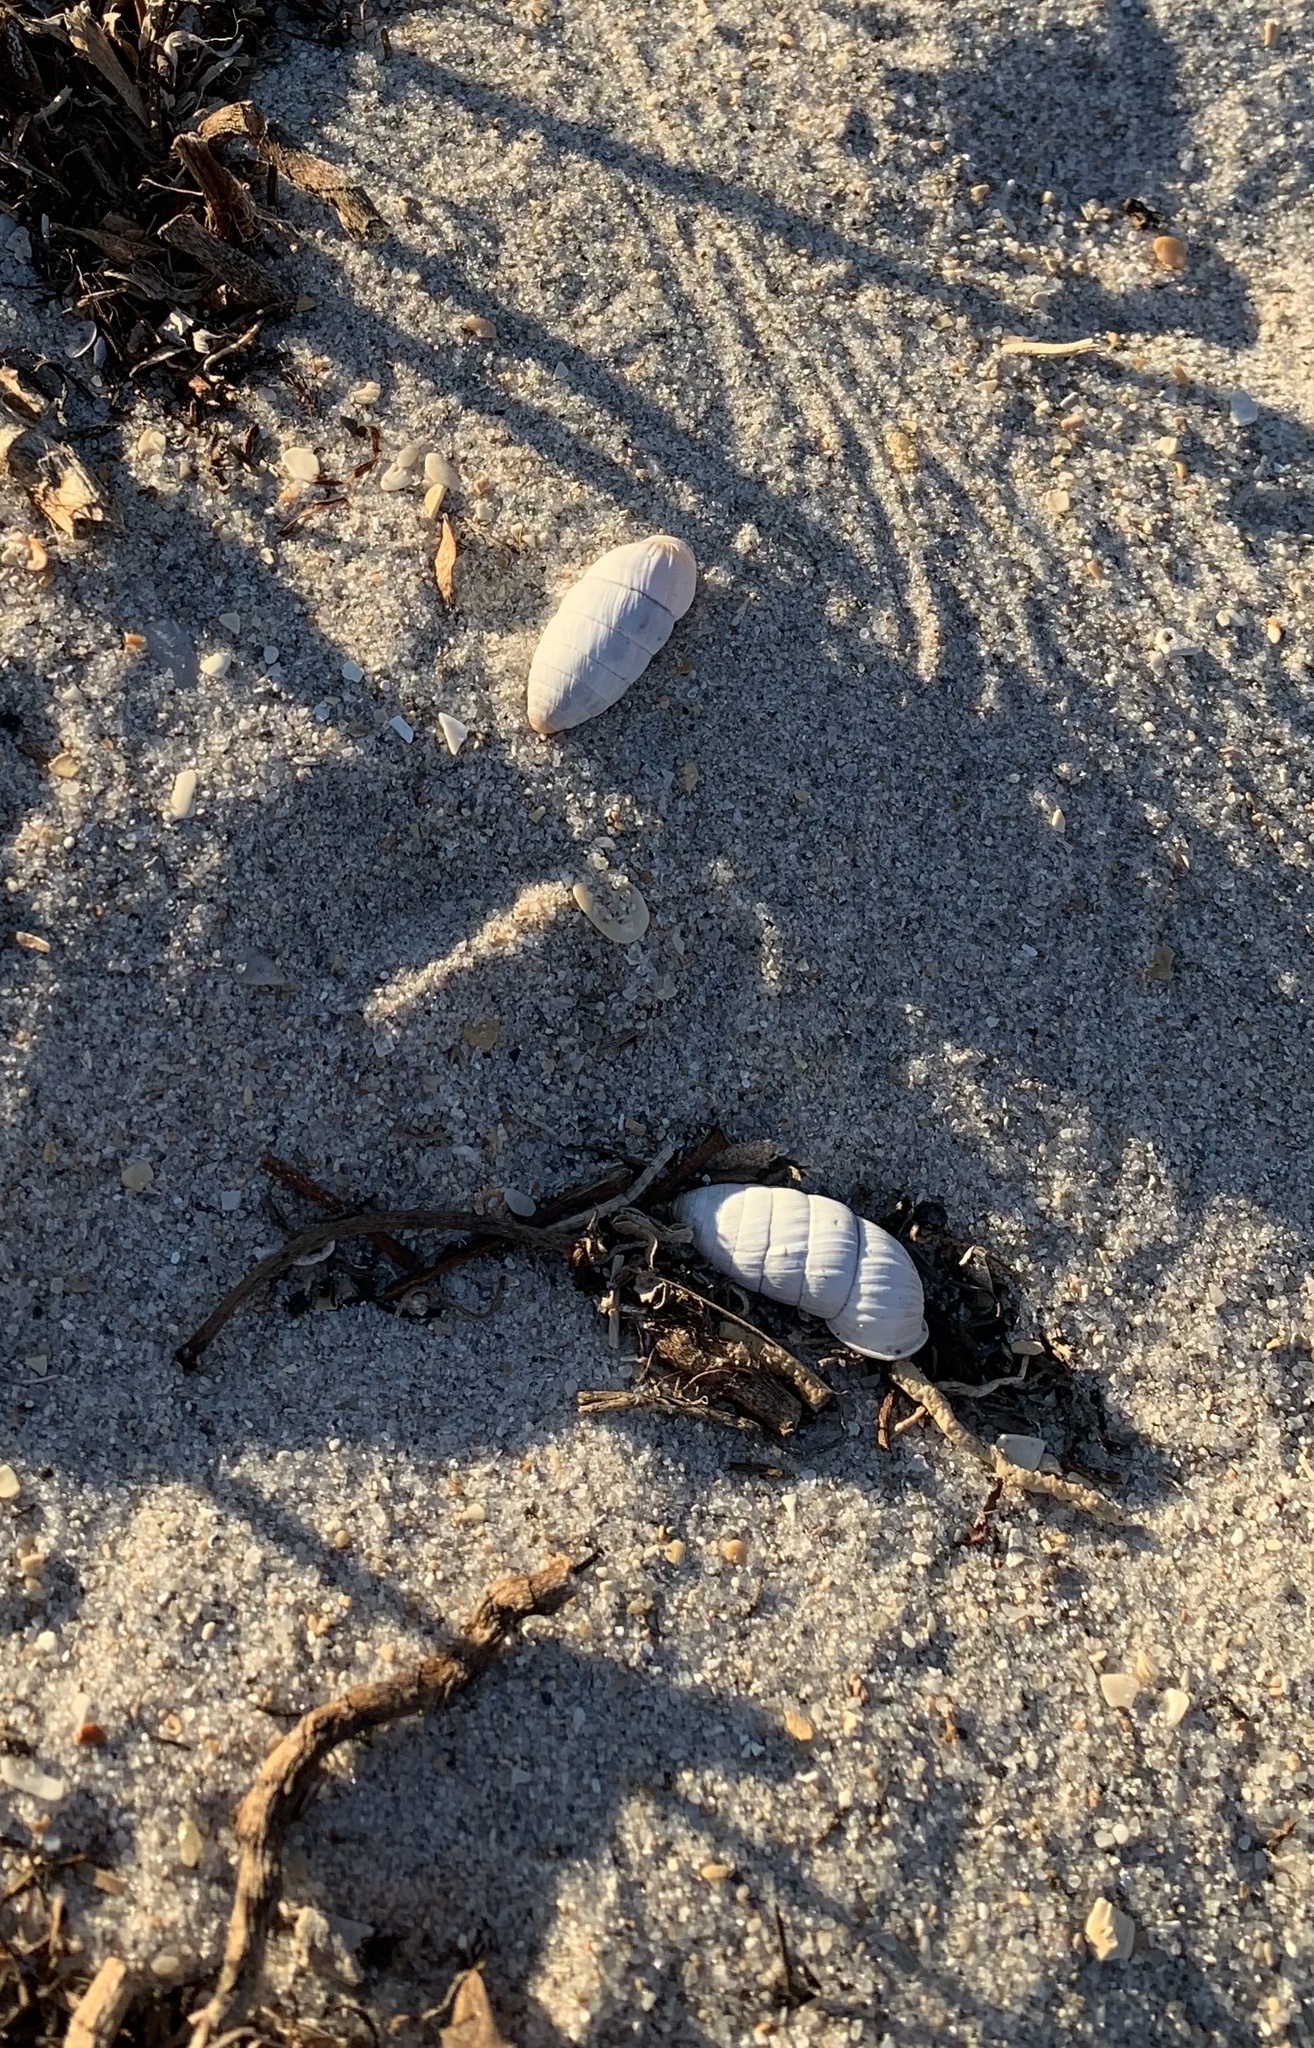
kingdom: Animalia
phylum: Mollusca
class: Gastropoda
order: Stylommatophora
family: Cerionidae
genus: Cerion
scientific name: Cerion incanum
